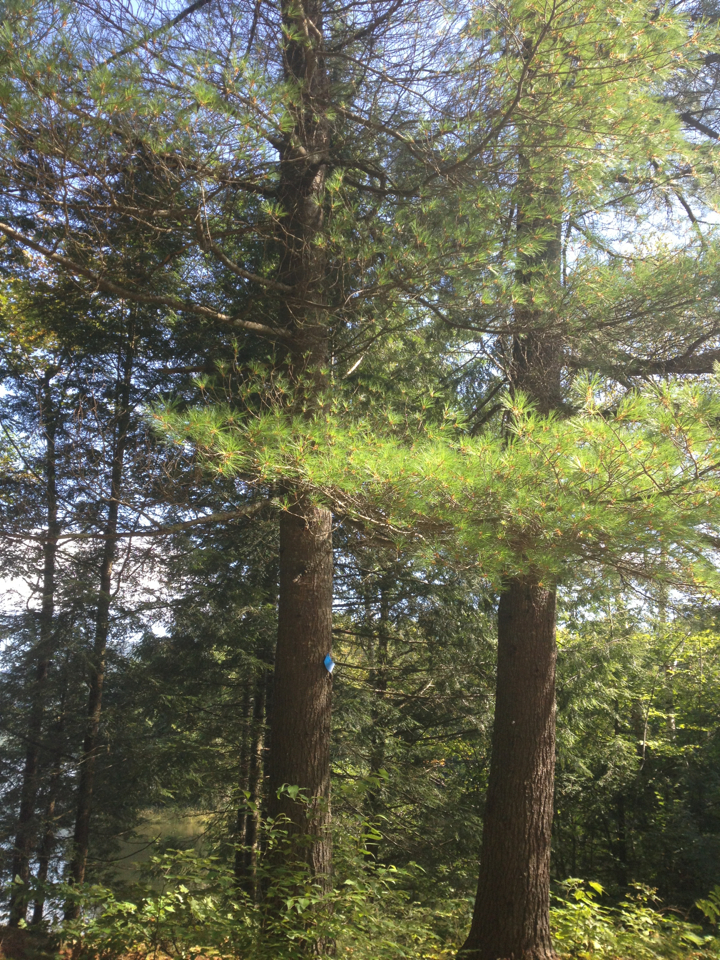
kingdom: Plantae
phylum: Tracheophyta
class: Pinopsida
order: Pinales
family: Pinaceae
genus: Pinus
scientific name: Pinus strobus
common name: Weymouth pine
